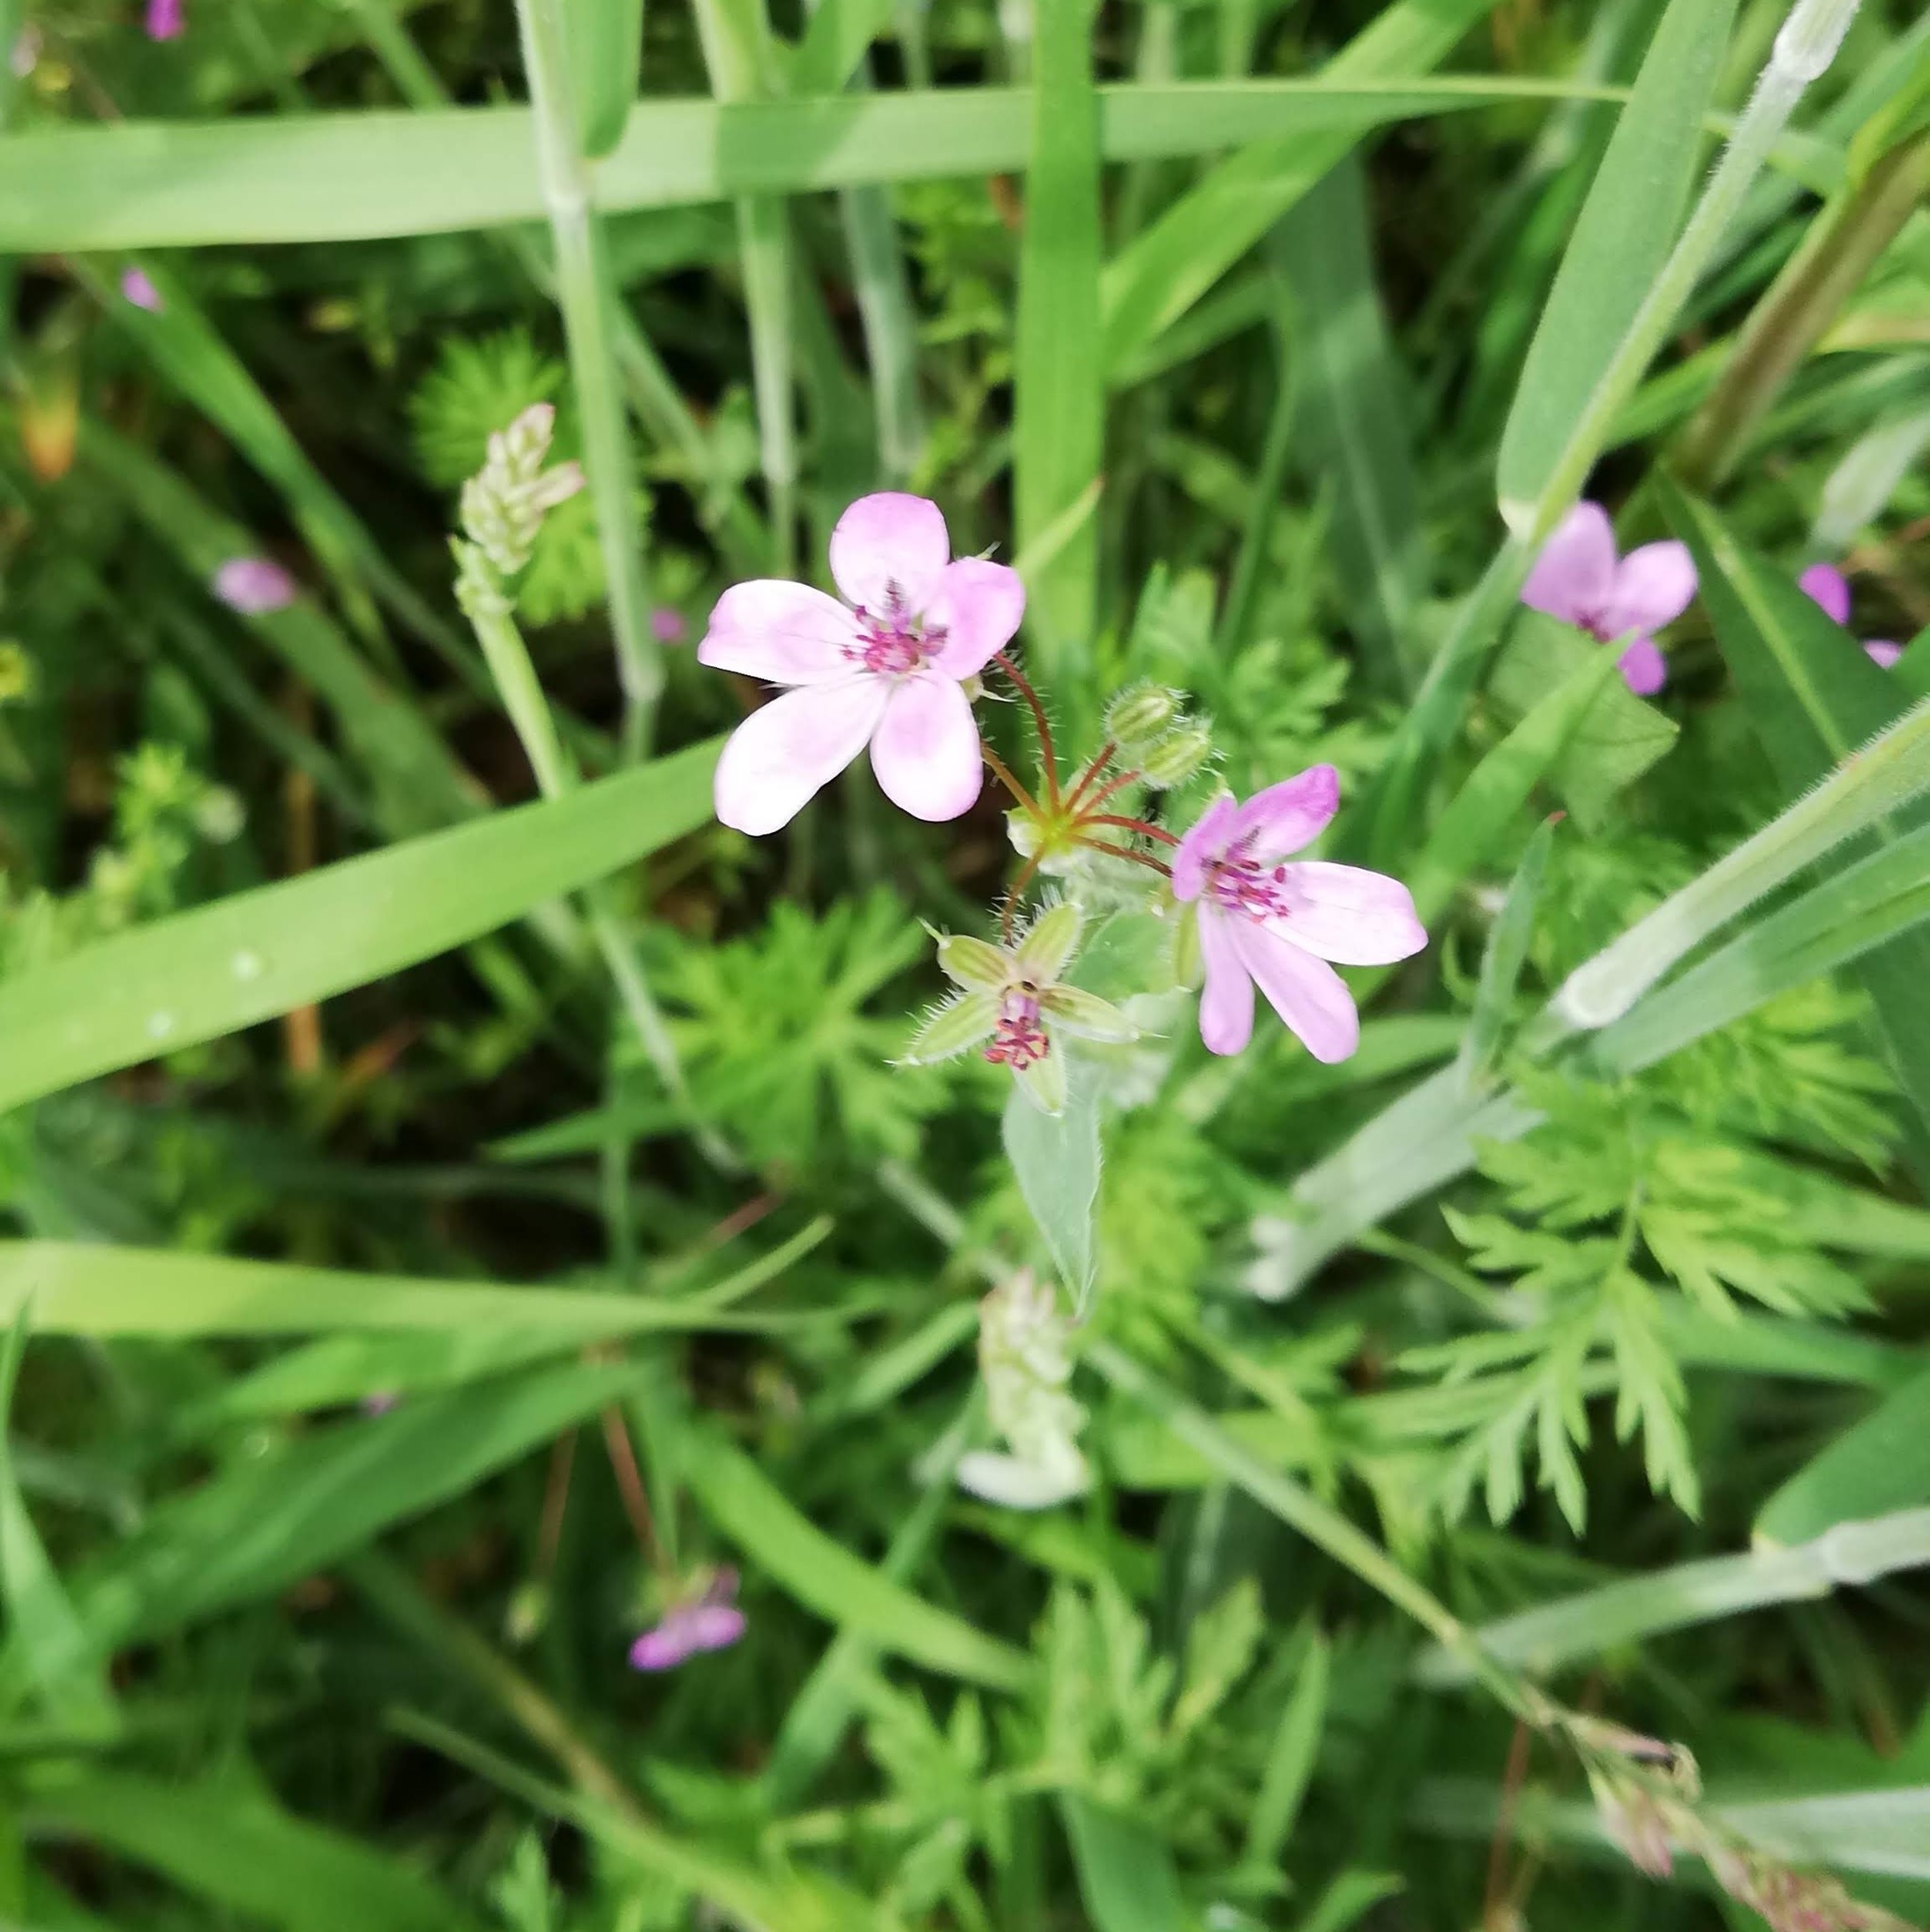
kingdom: Plantae
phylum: Tracheophyta
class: Magnoliopsida
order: Geraniales
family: Geraniaceae
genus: Erodium
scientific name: Erodium cicutarium
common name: Common stork's-bill
